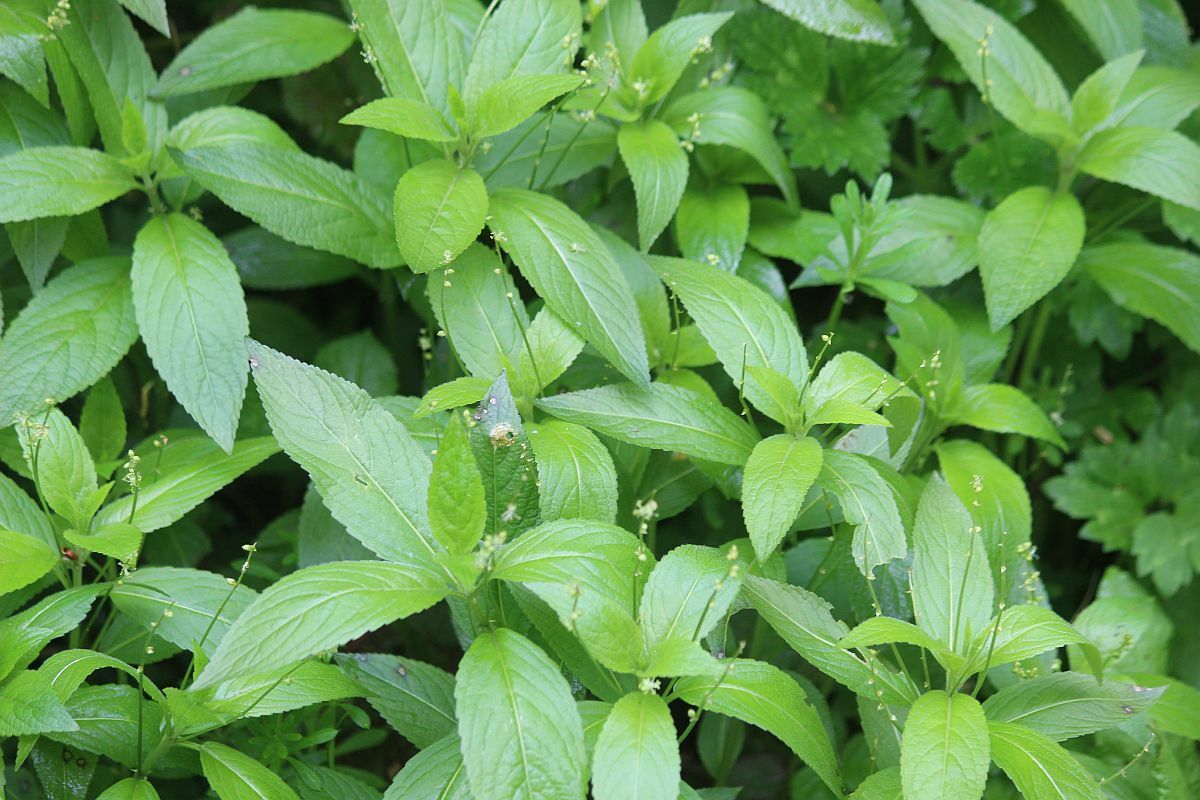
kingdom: Plantae
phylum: Tracheophyta
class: Magnoliopsida
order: Malpighiales
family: Euphorbiaceae
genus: Mercurialis
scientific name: Mercurialis perennis
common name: Dog mercury
